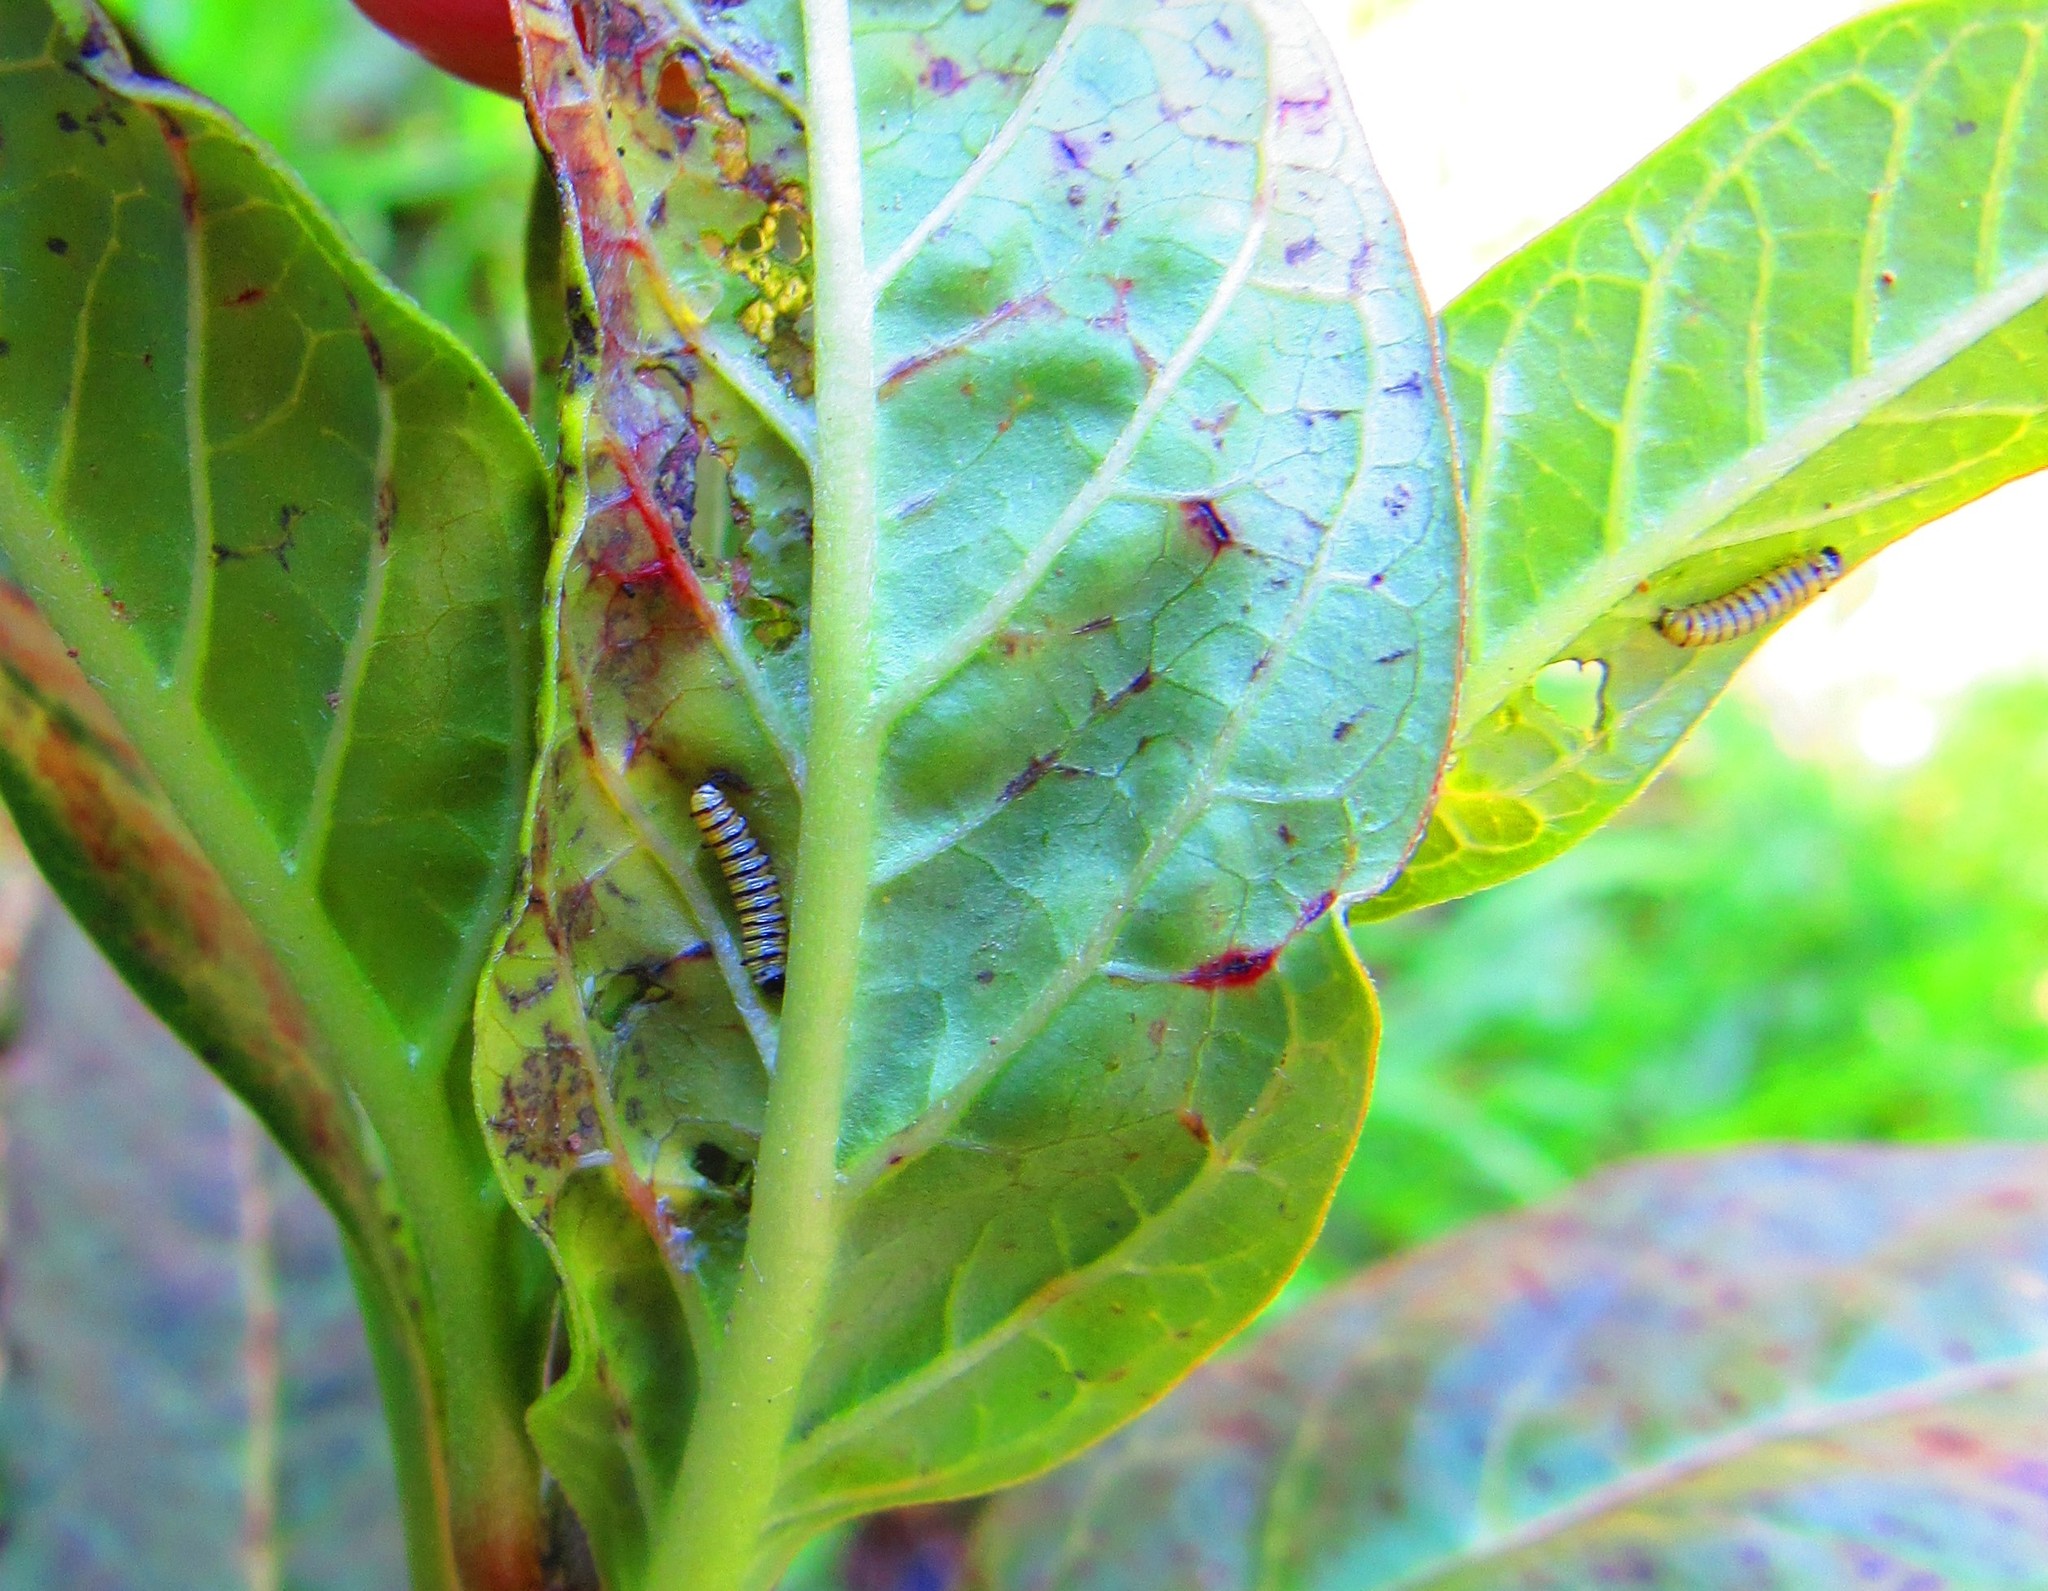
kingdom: Animalia
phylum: Arthropoda
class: Insecta
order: Lepidoptera
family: Nymphalidae
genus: Danaus
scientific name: Danaus plexippus
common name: Monarch
